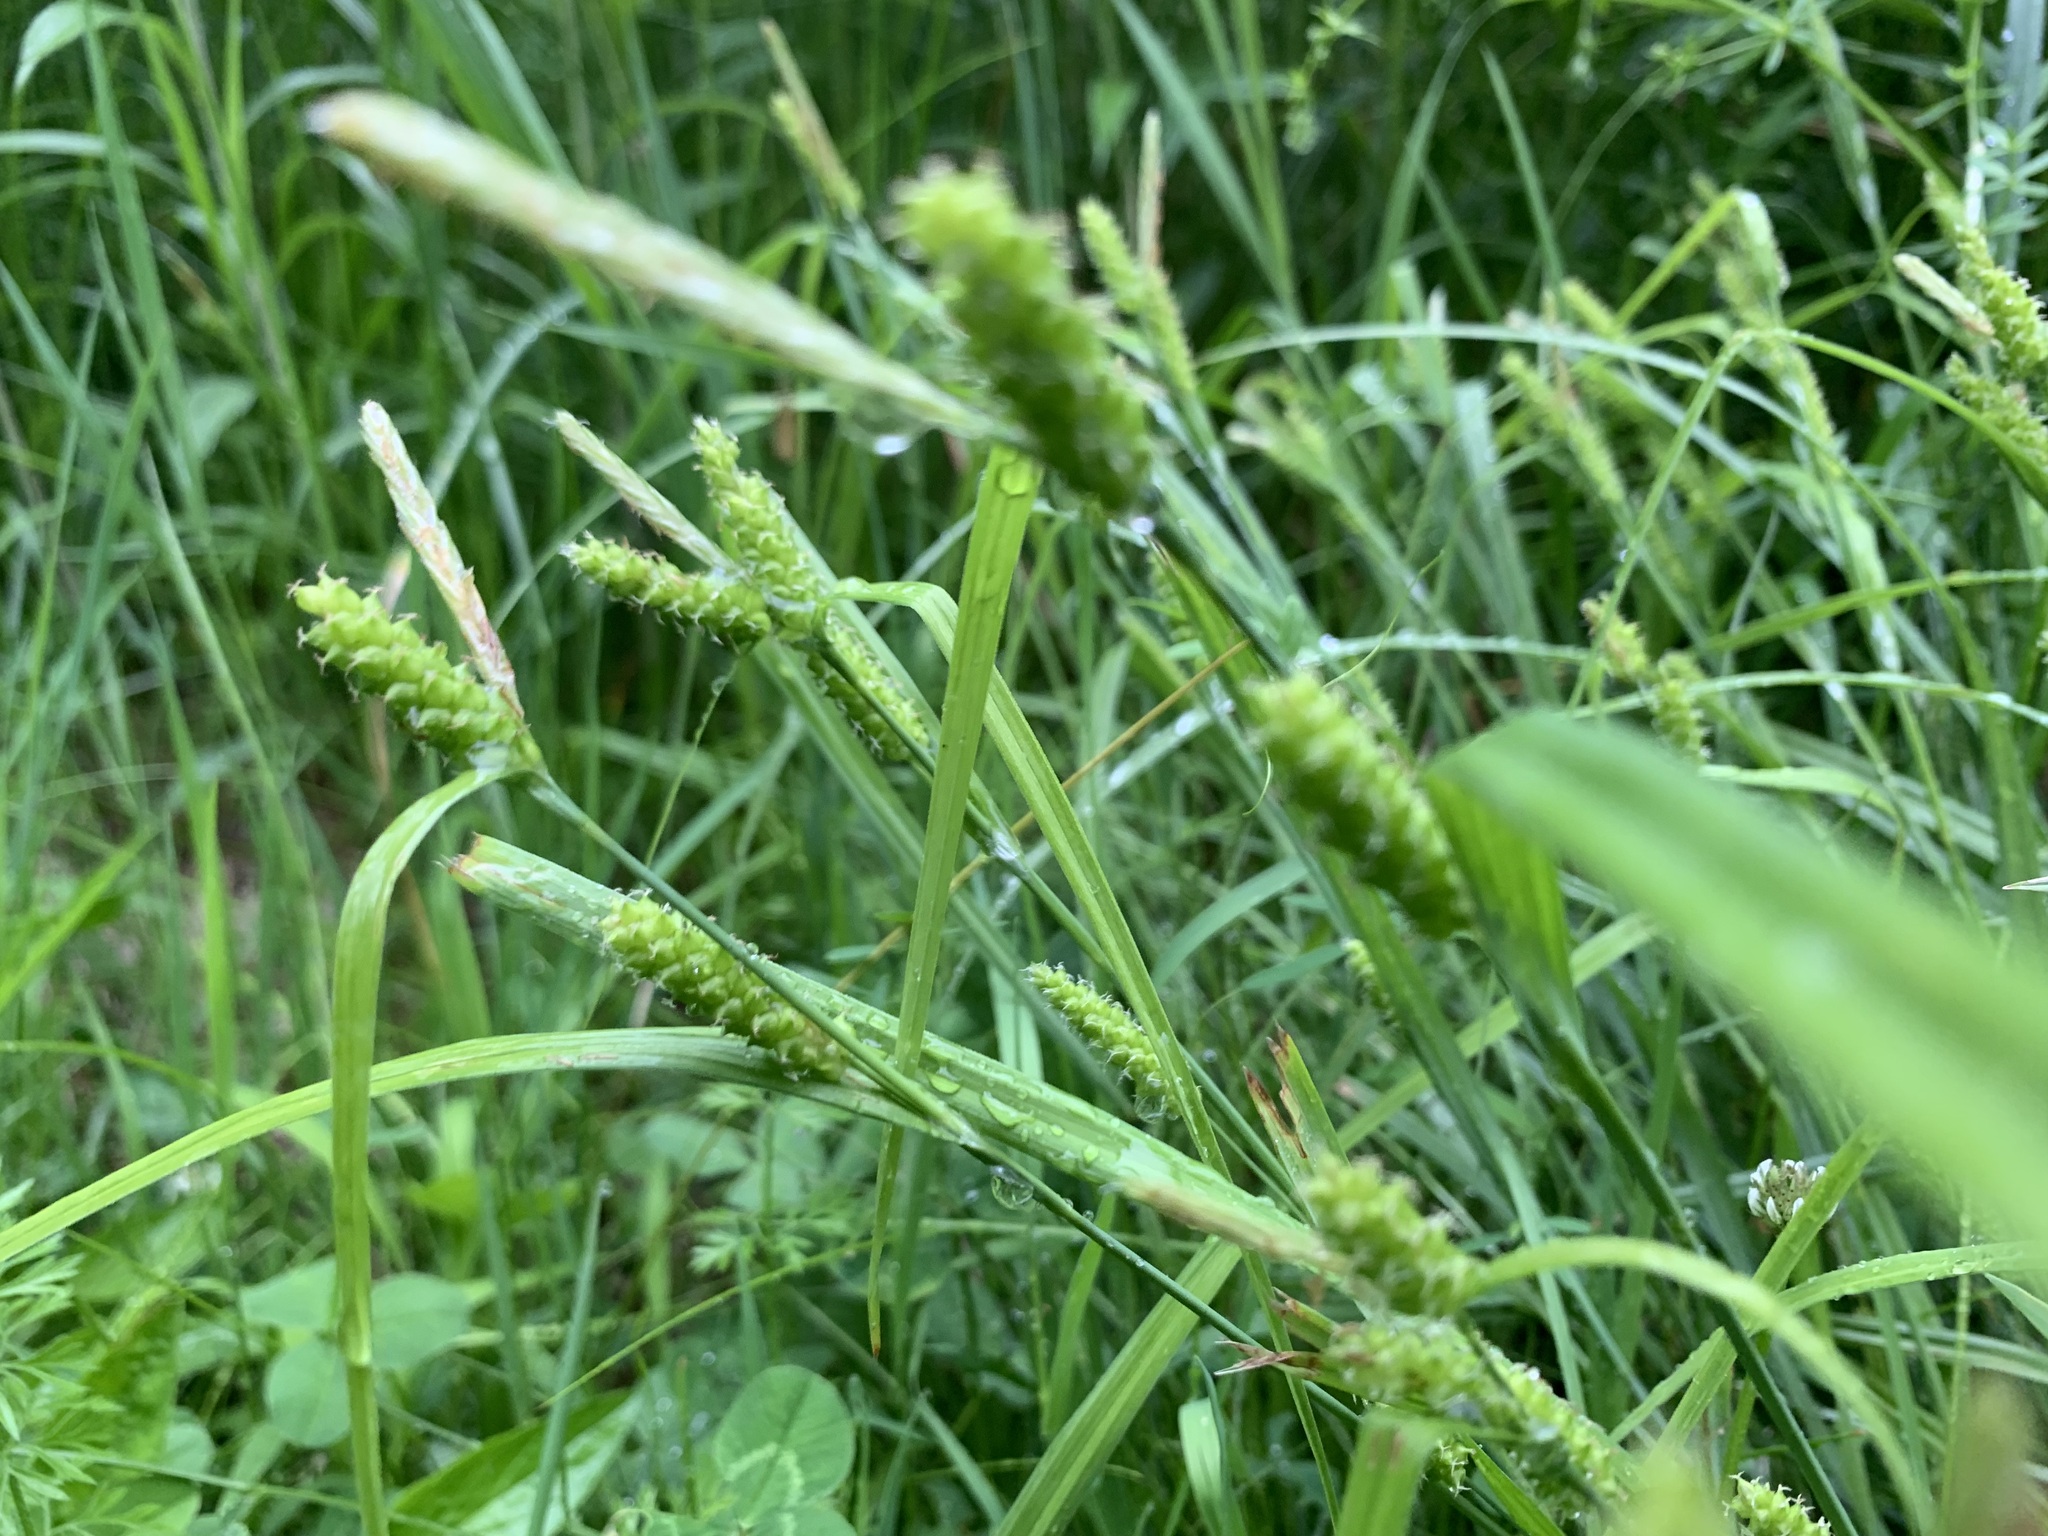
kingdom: Plantae
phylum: Tracheophyta
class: Liliopsida
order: Poales
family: Cyperaceae
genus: Carex
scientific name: Carex granularis
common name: Granular sedge
